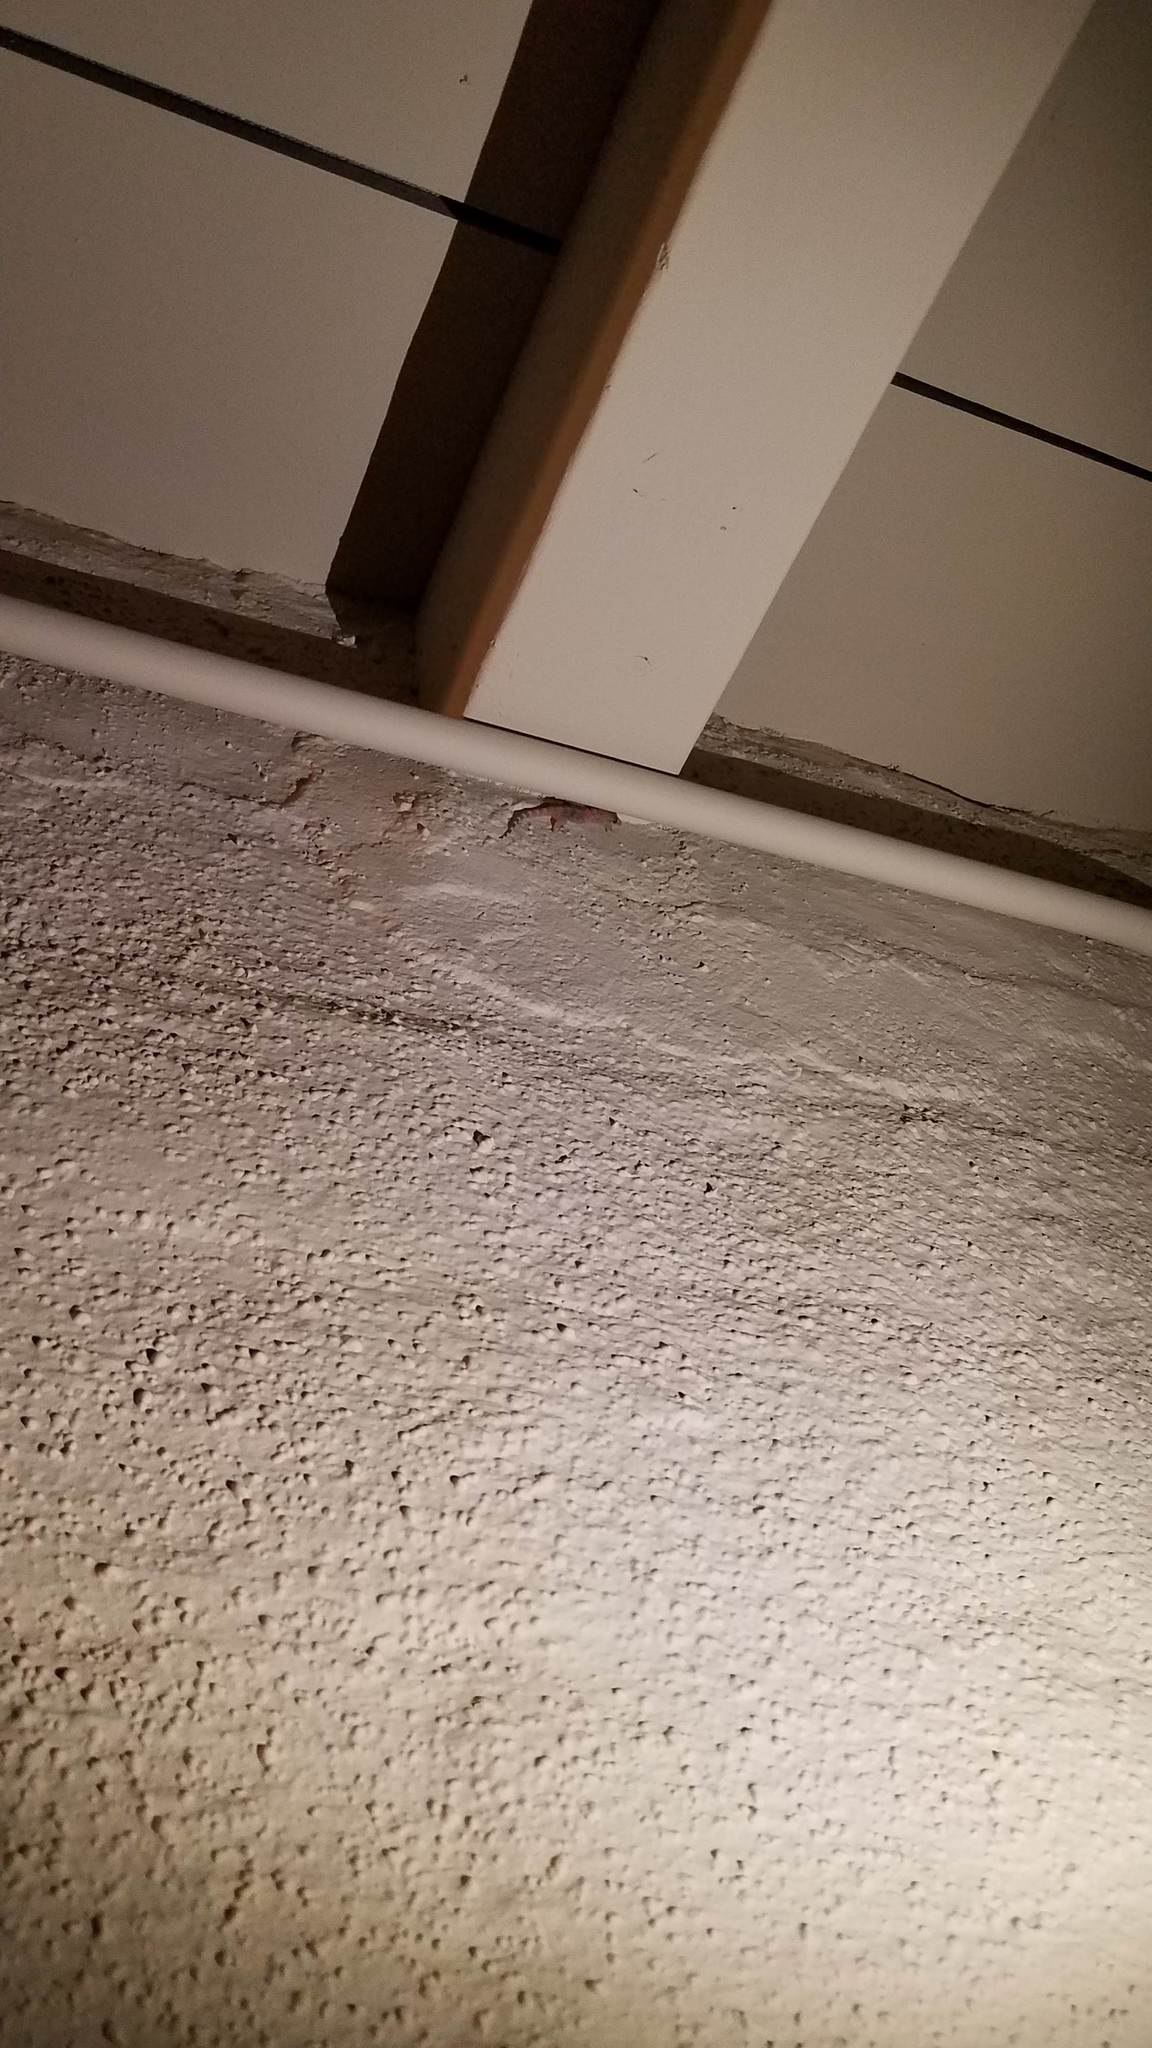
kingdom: Animalia
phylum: Chordata
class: Squamata
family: Gekkonidae
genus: Hemidactylus
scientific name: Hemidactylus turcicus
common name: Turkish gecko
